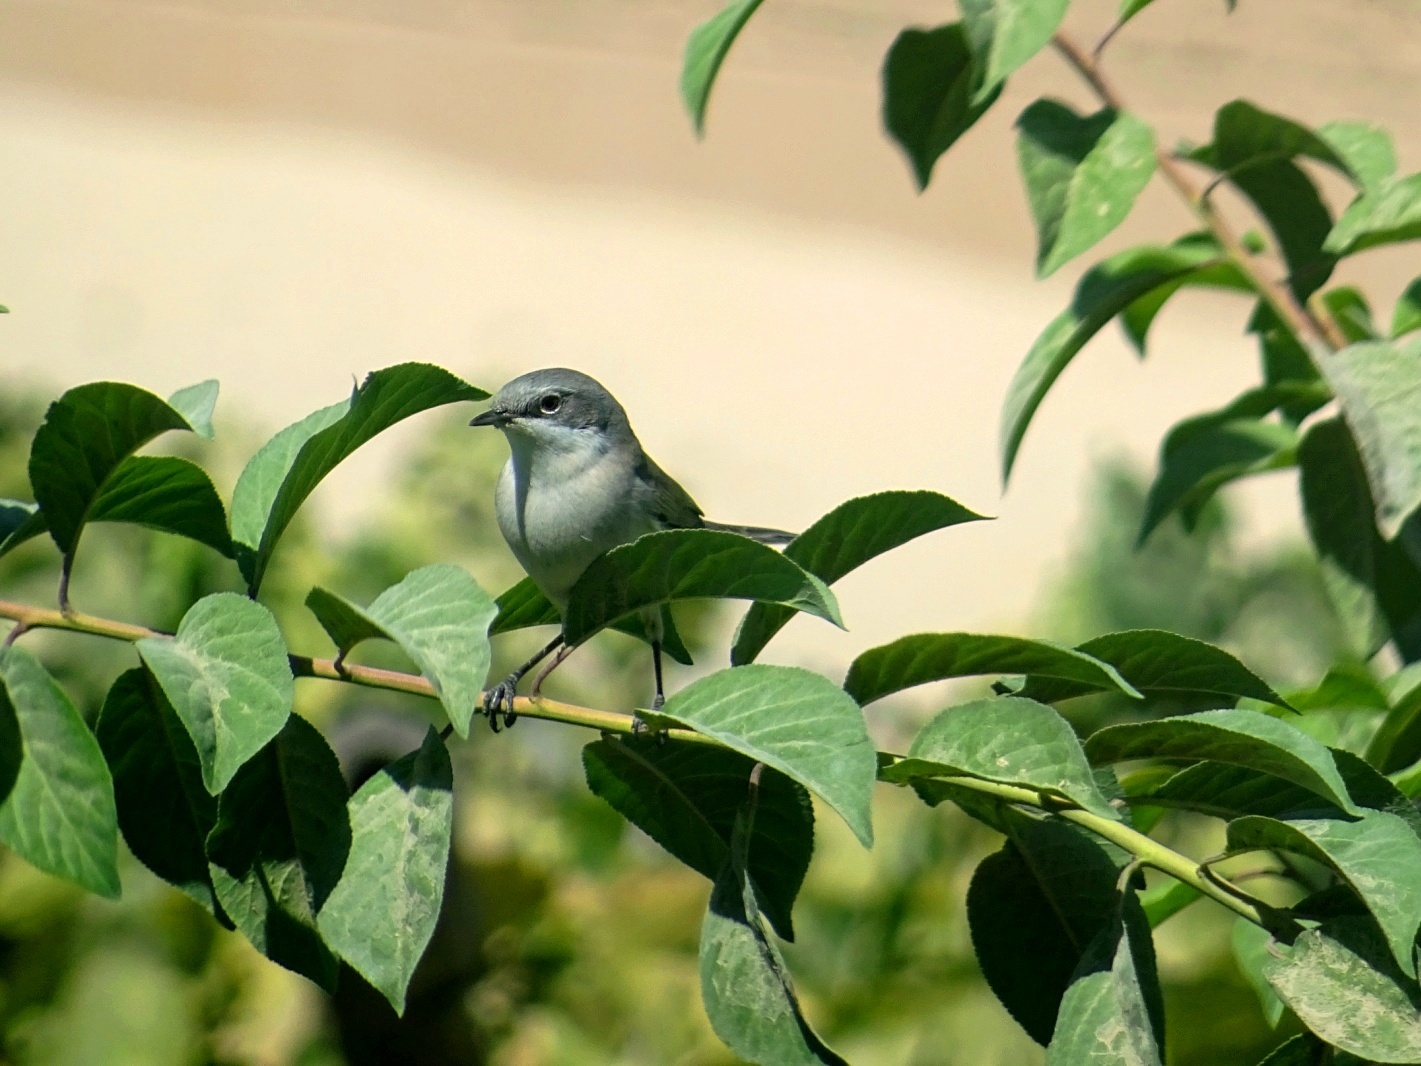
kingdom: Animalia
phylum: Chordata
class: Aves
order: Passeriformes
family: Sylviidae
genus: Sylvia
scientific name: Sylvia curruca
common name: Lesser whitethroat
